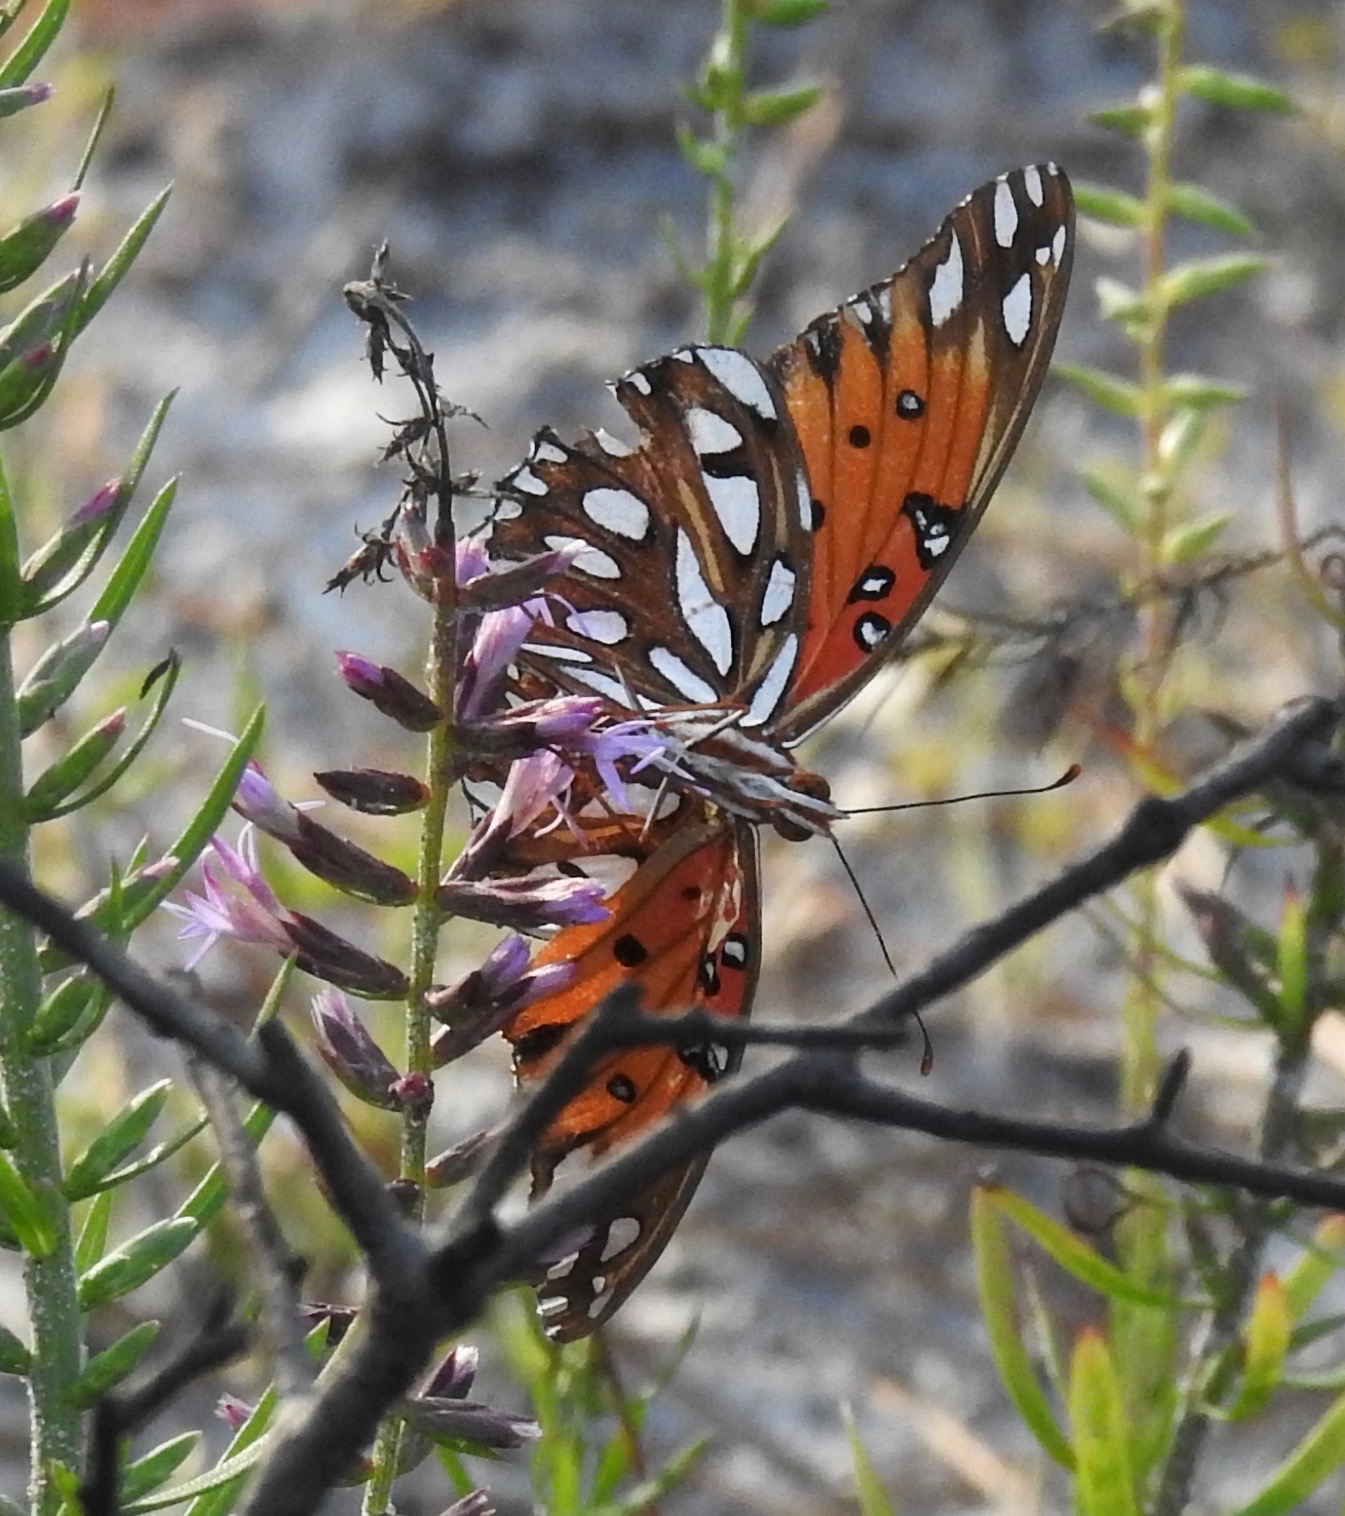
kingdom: Animalia
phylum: Arthropoda
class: Insecta
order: Lepidoptera
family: Nymphalidae
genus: Dione
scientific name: Dione vanillae
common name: Gulf fritillary
